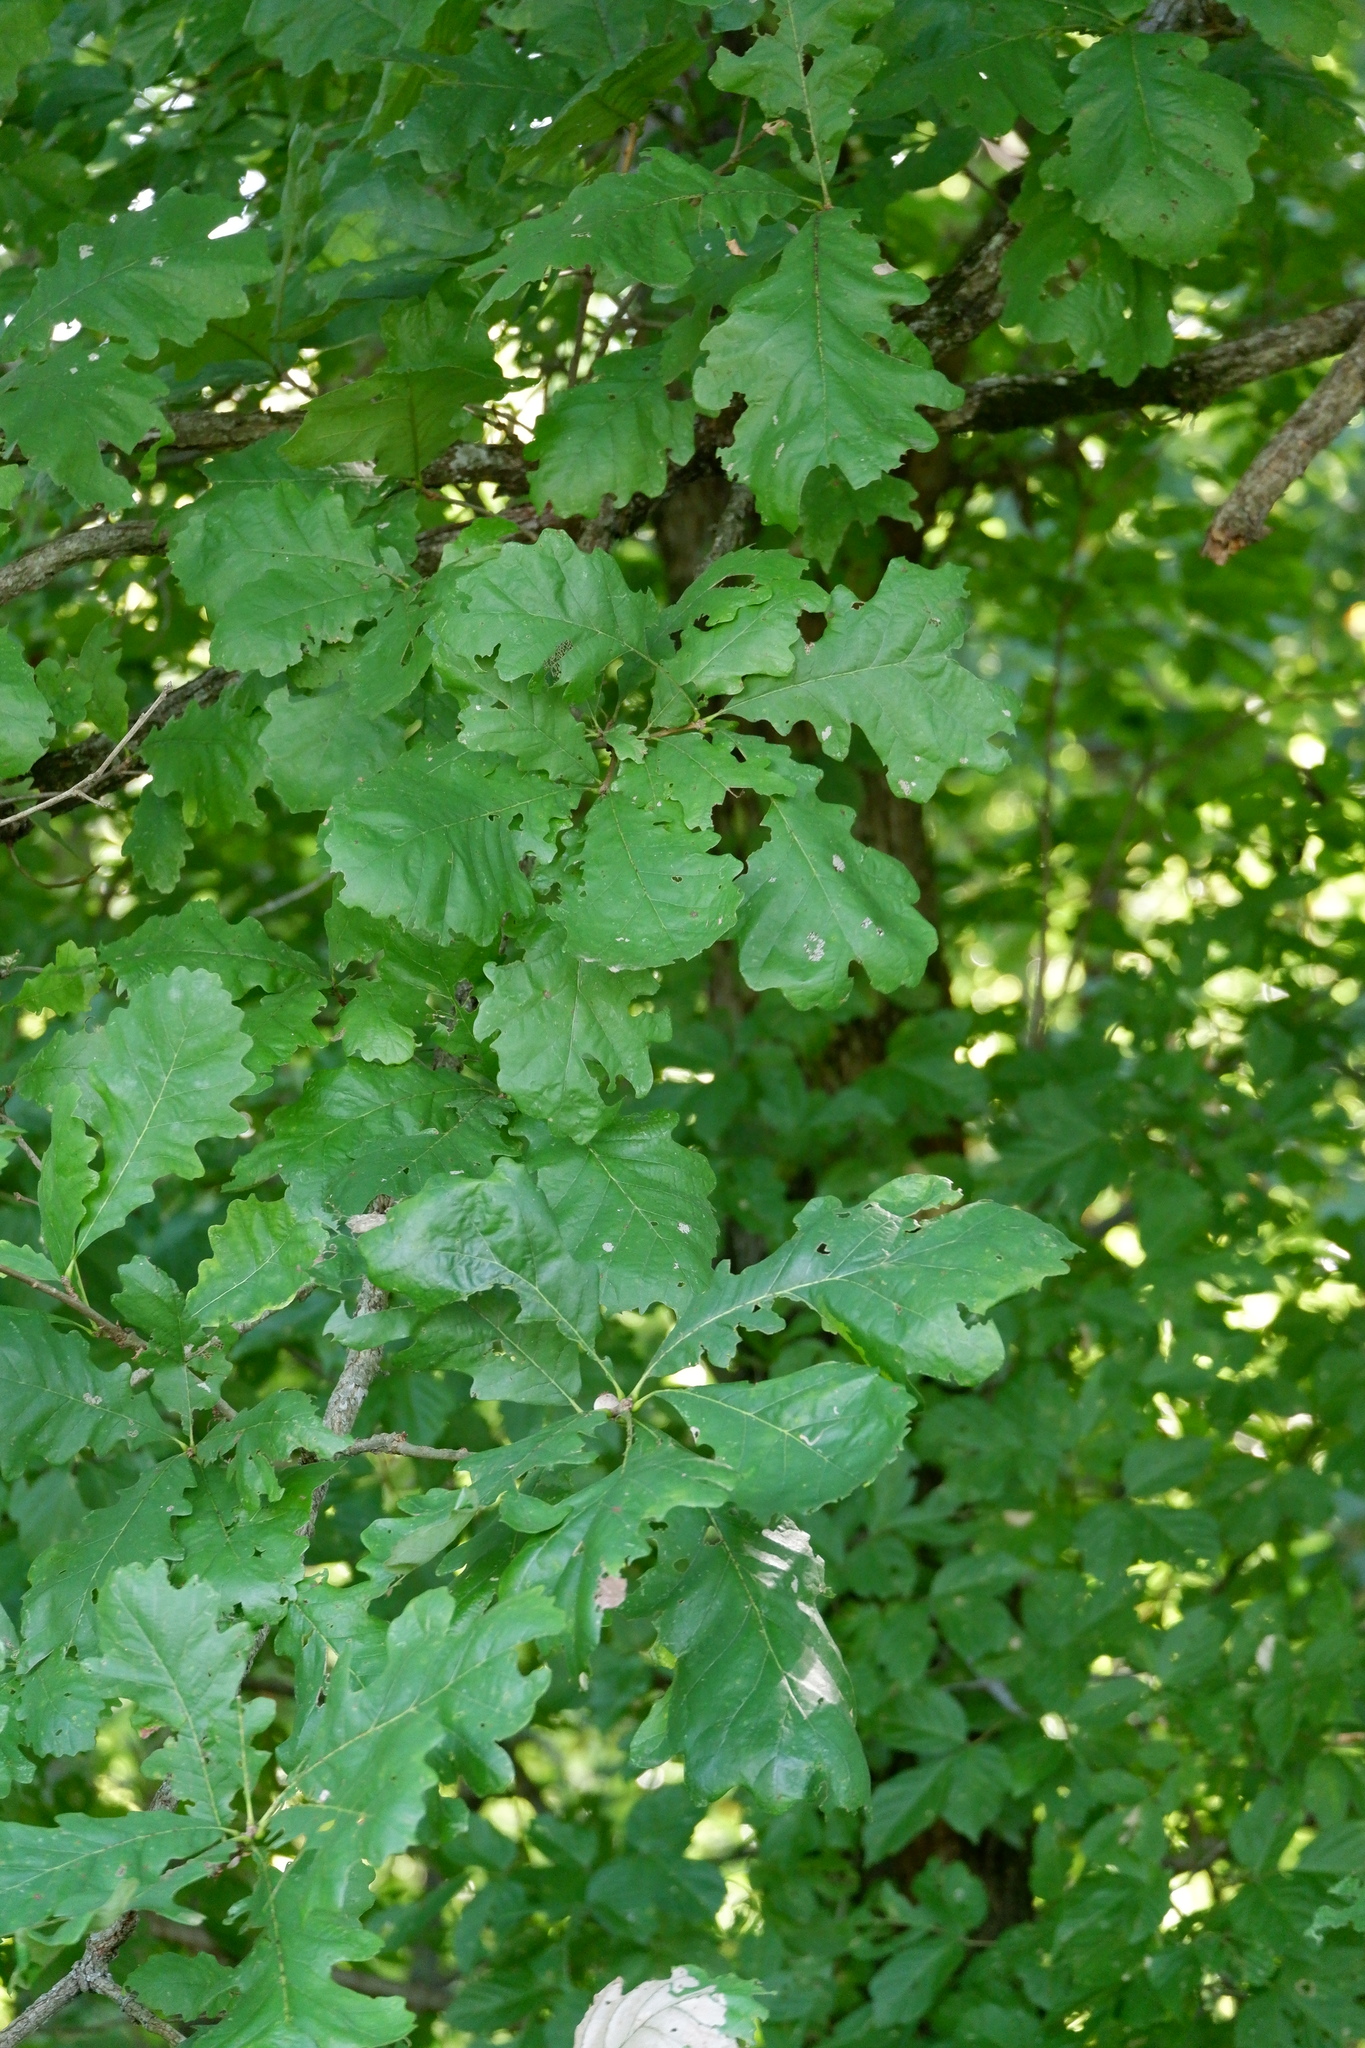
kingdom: Plantae
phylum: Tracheophyta
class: Magnoliopsida
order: Fagales
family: Fagaceae
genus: Quercus
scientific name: Quercus macrocarpa
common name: Bur oak
